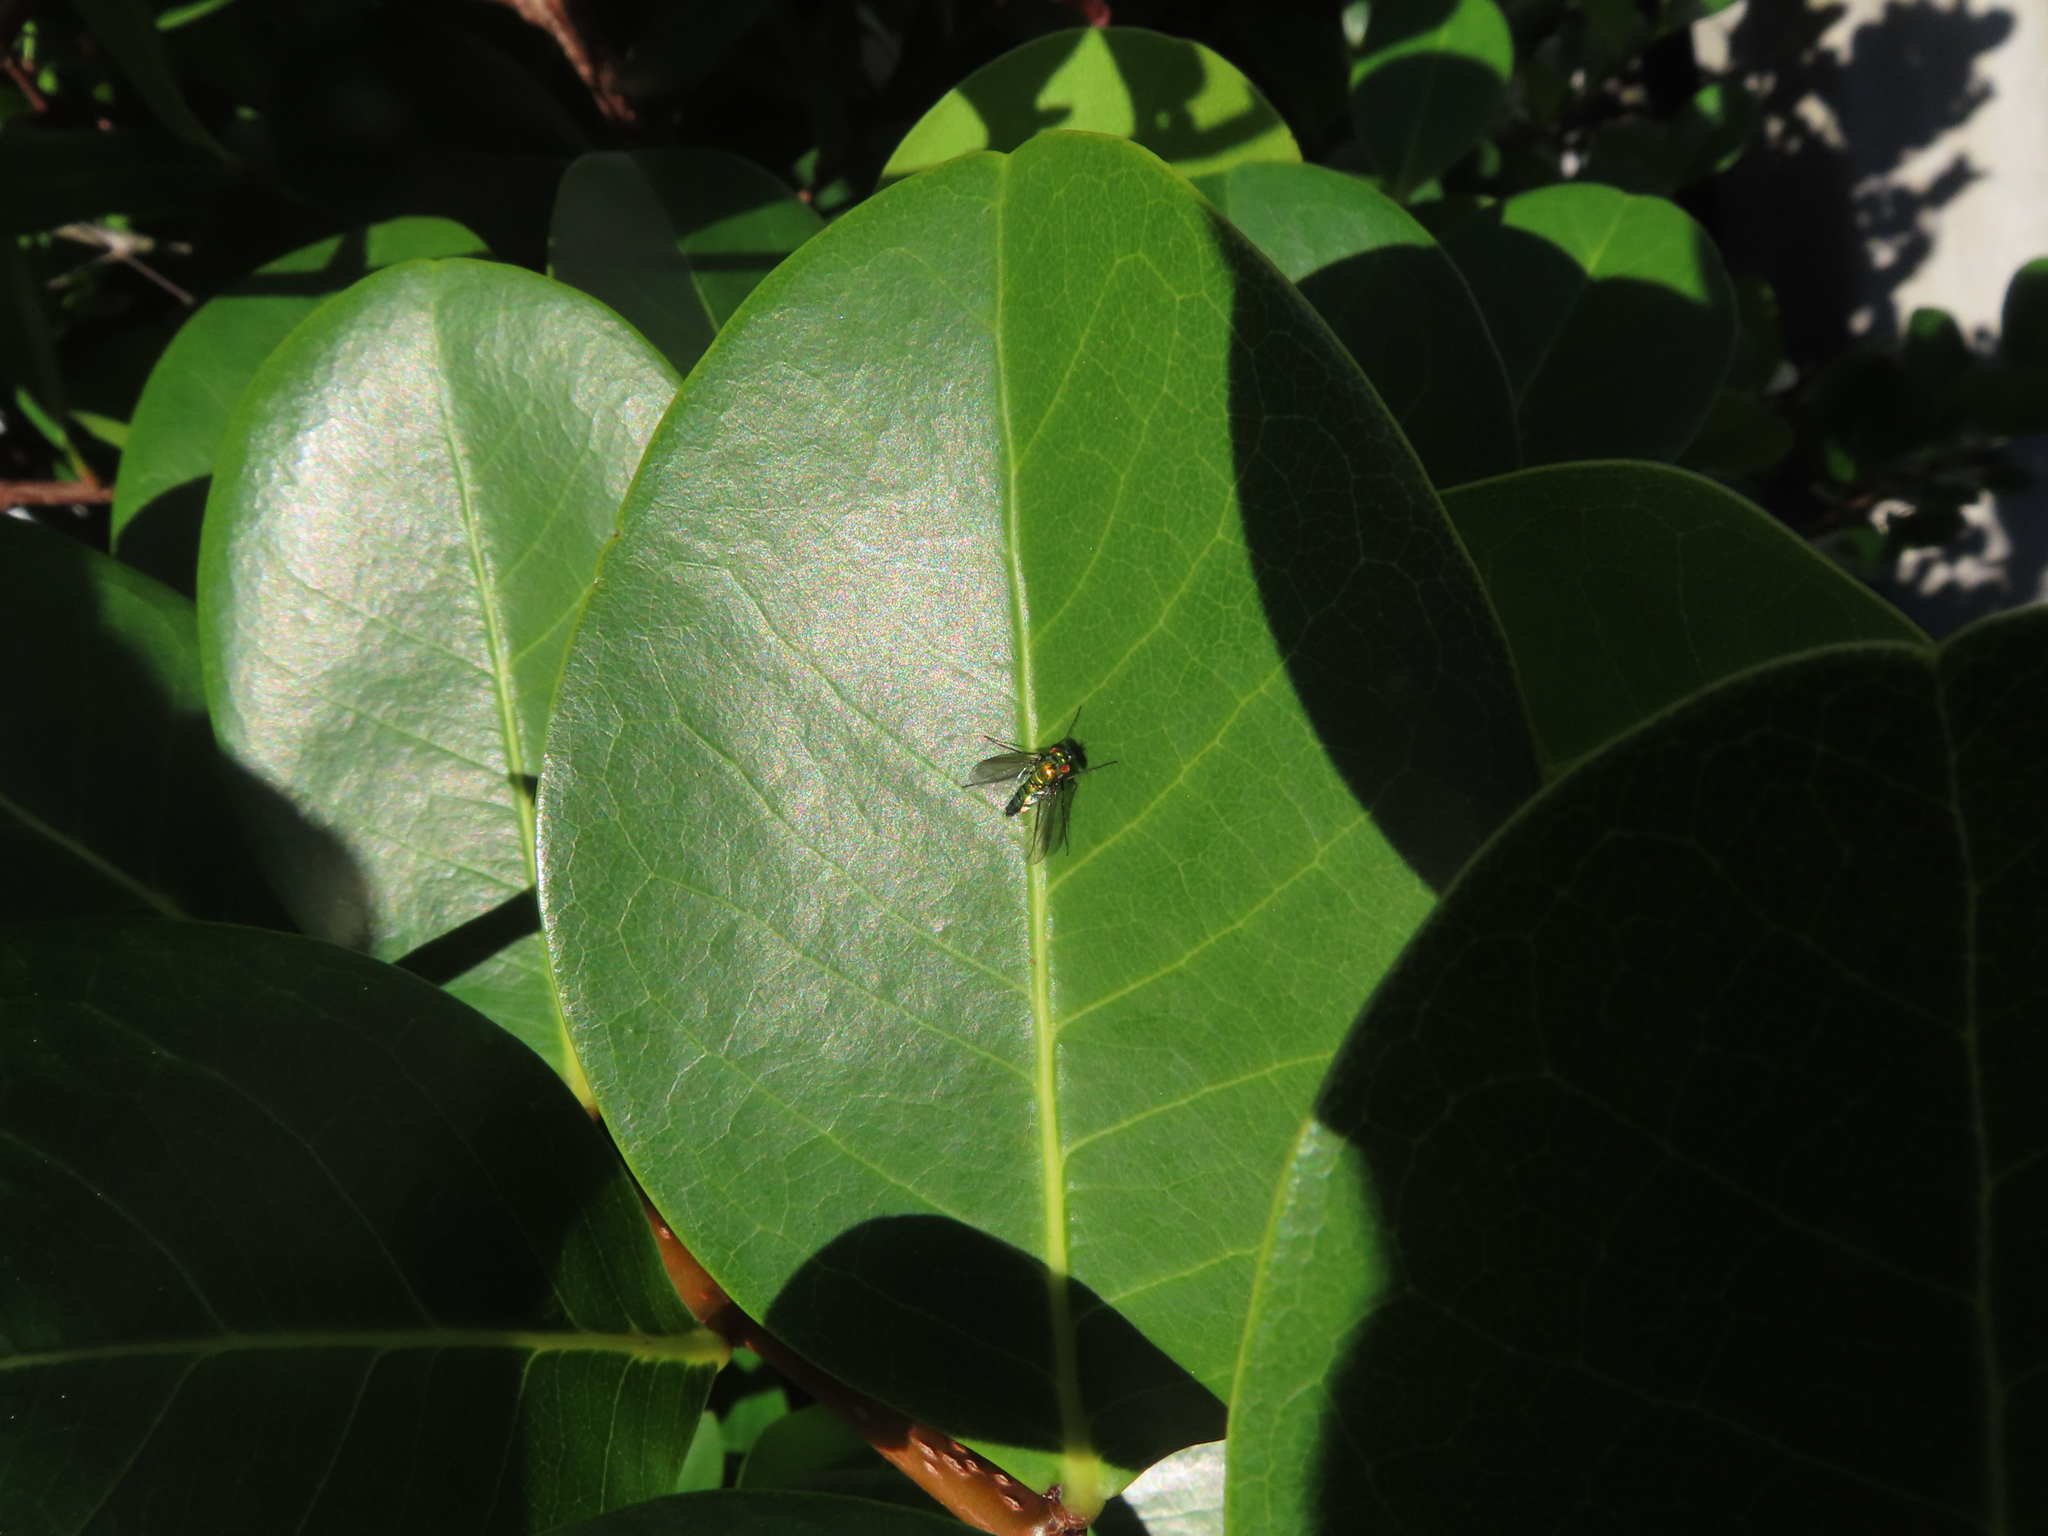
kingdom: Animalia
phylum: Arthropoda
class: Insecta
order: Diptera
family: Dolichopodidae
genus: Condylostylus
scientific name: Condylostylus longicornis
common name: Long-legged fly
